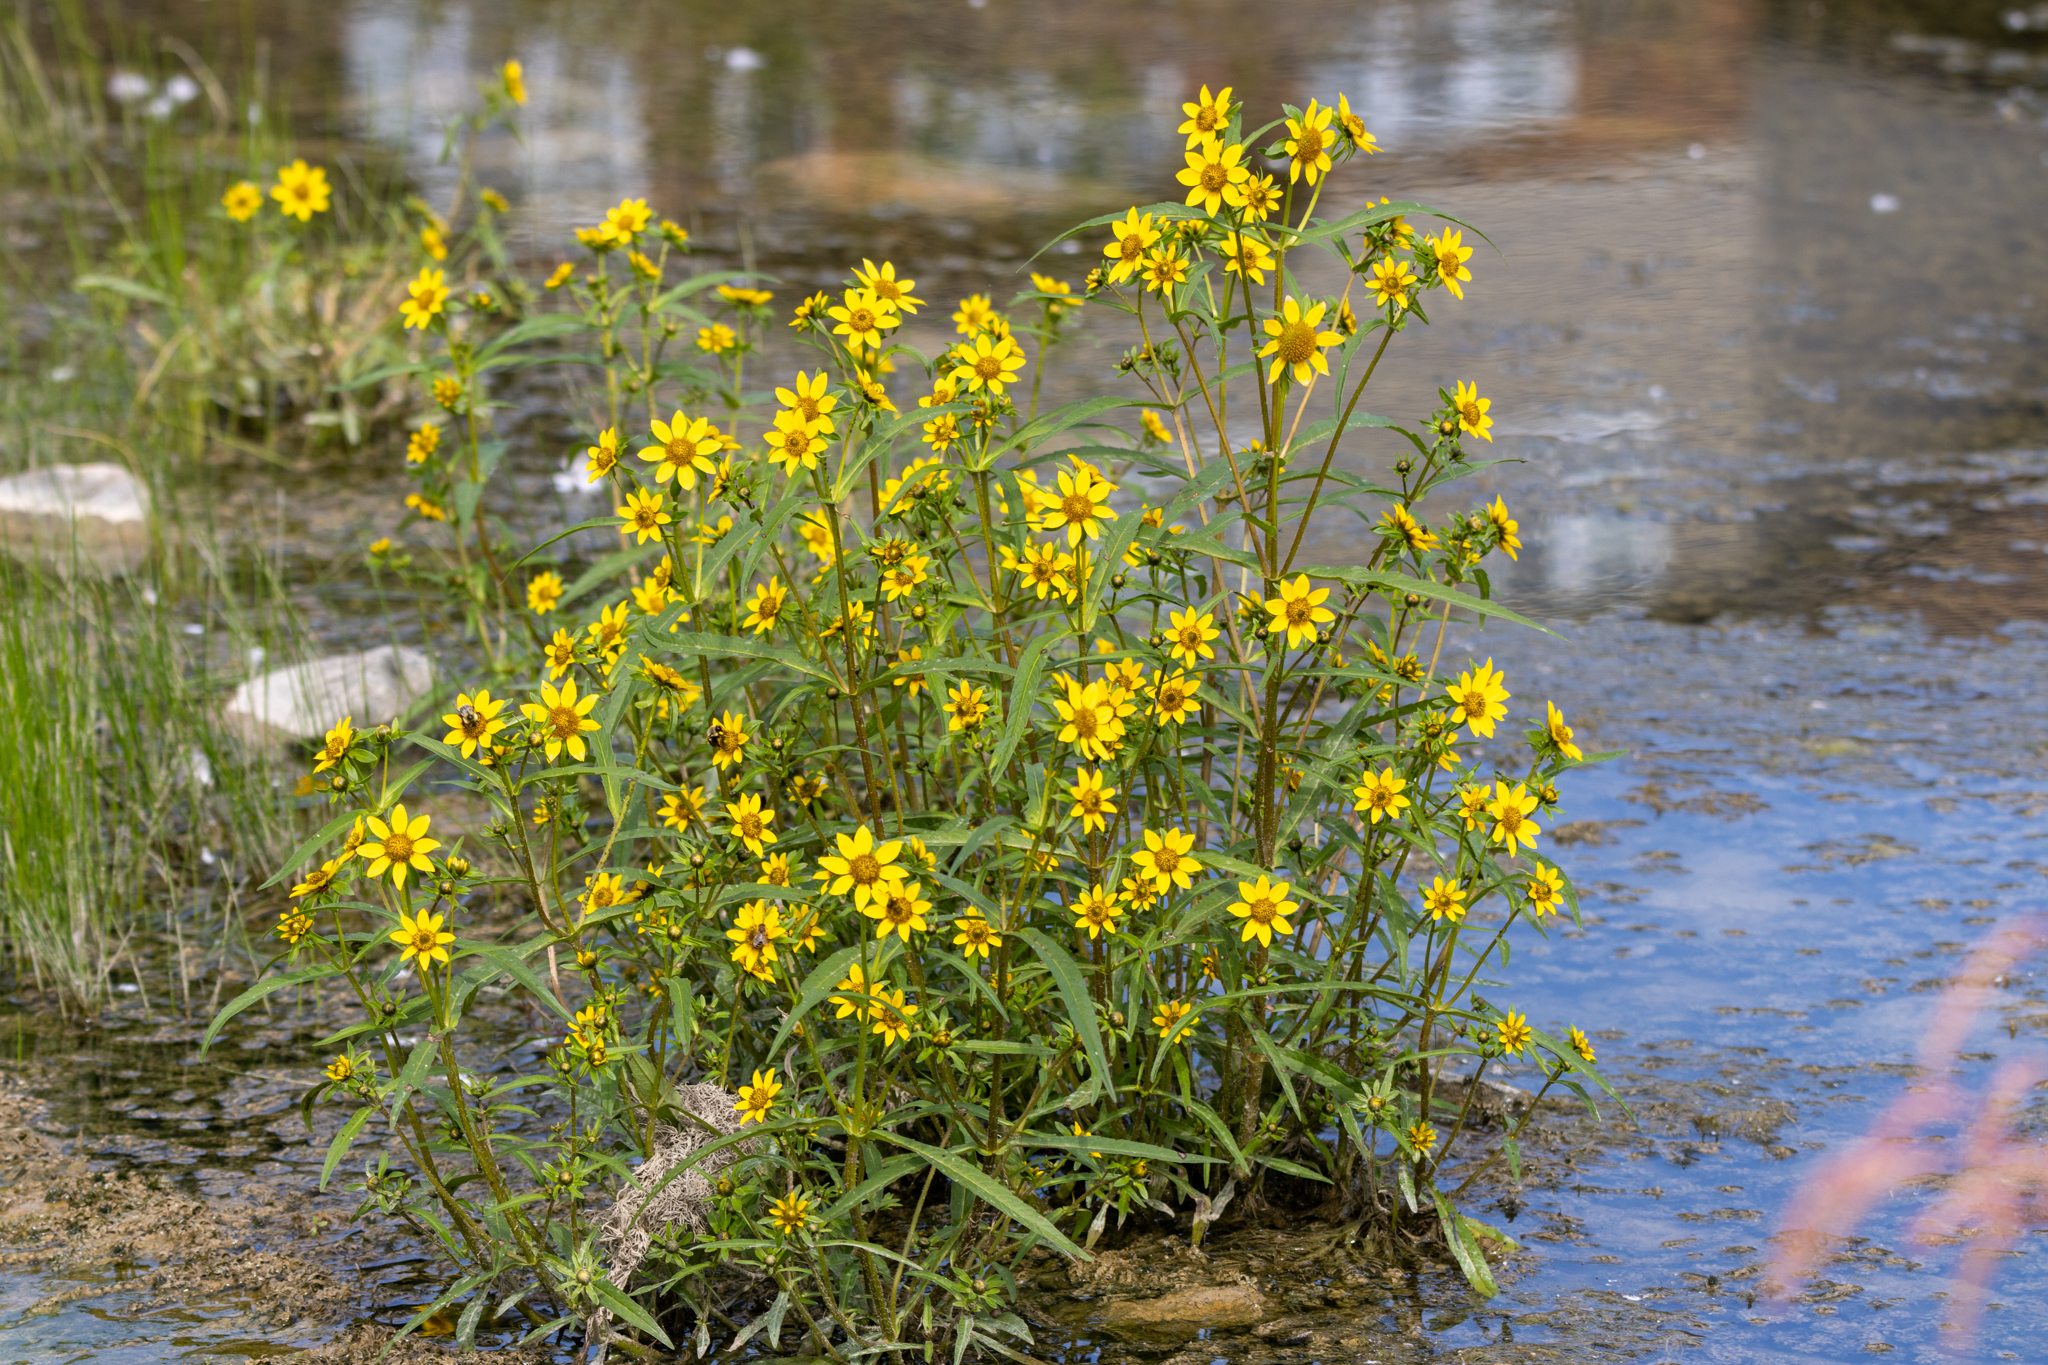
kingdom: Plantae
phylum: Tracheophyta
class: Magnoliopsida
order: Asterales
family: Asteraceae
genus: Bidens
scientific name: Bidens cernua
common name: Nodding bur-marigold
